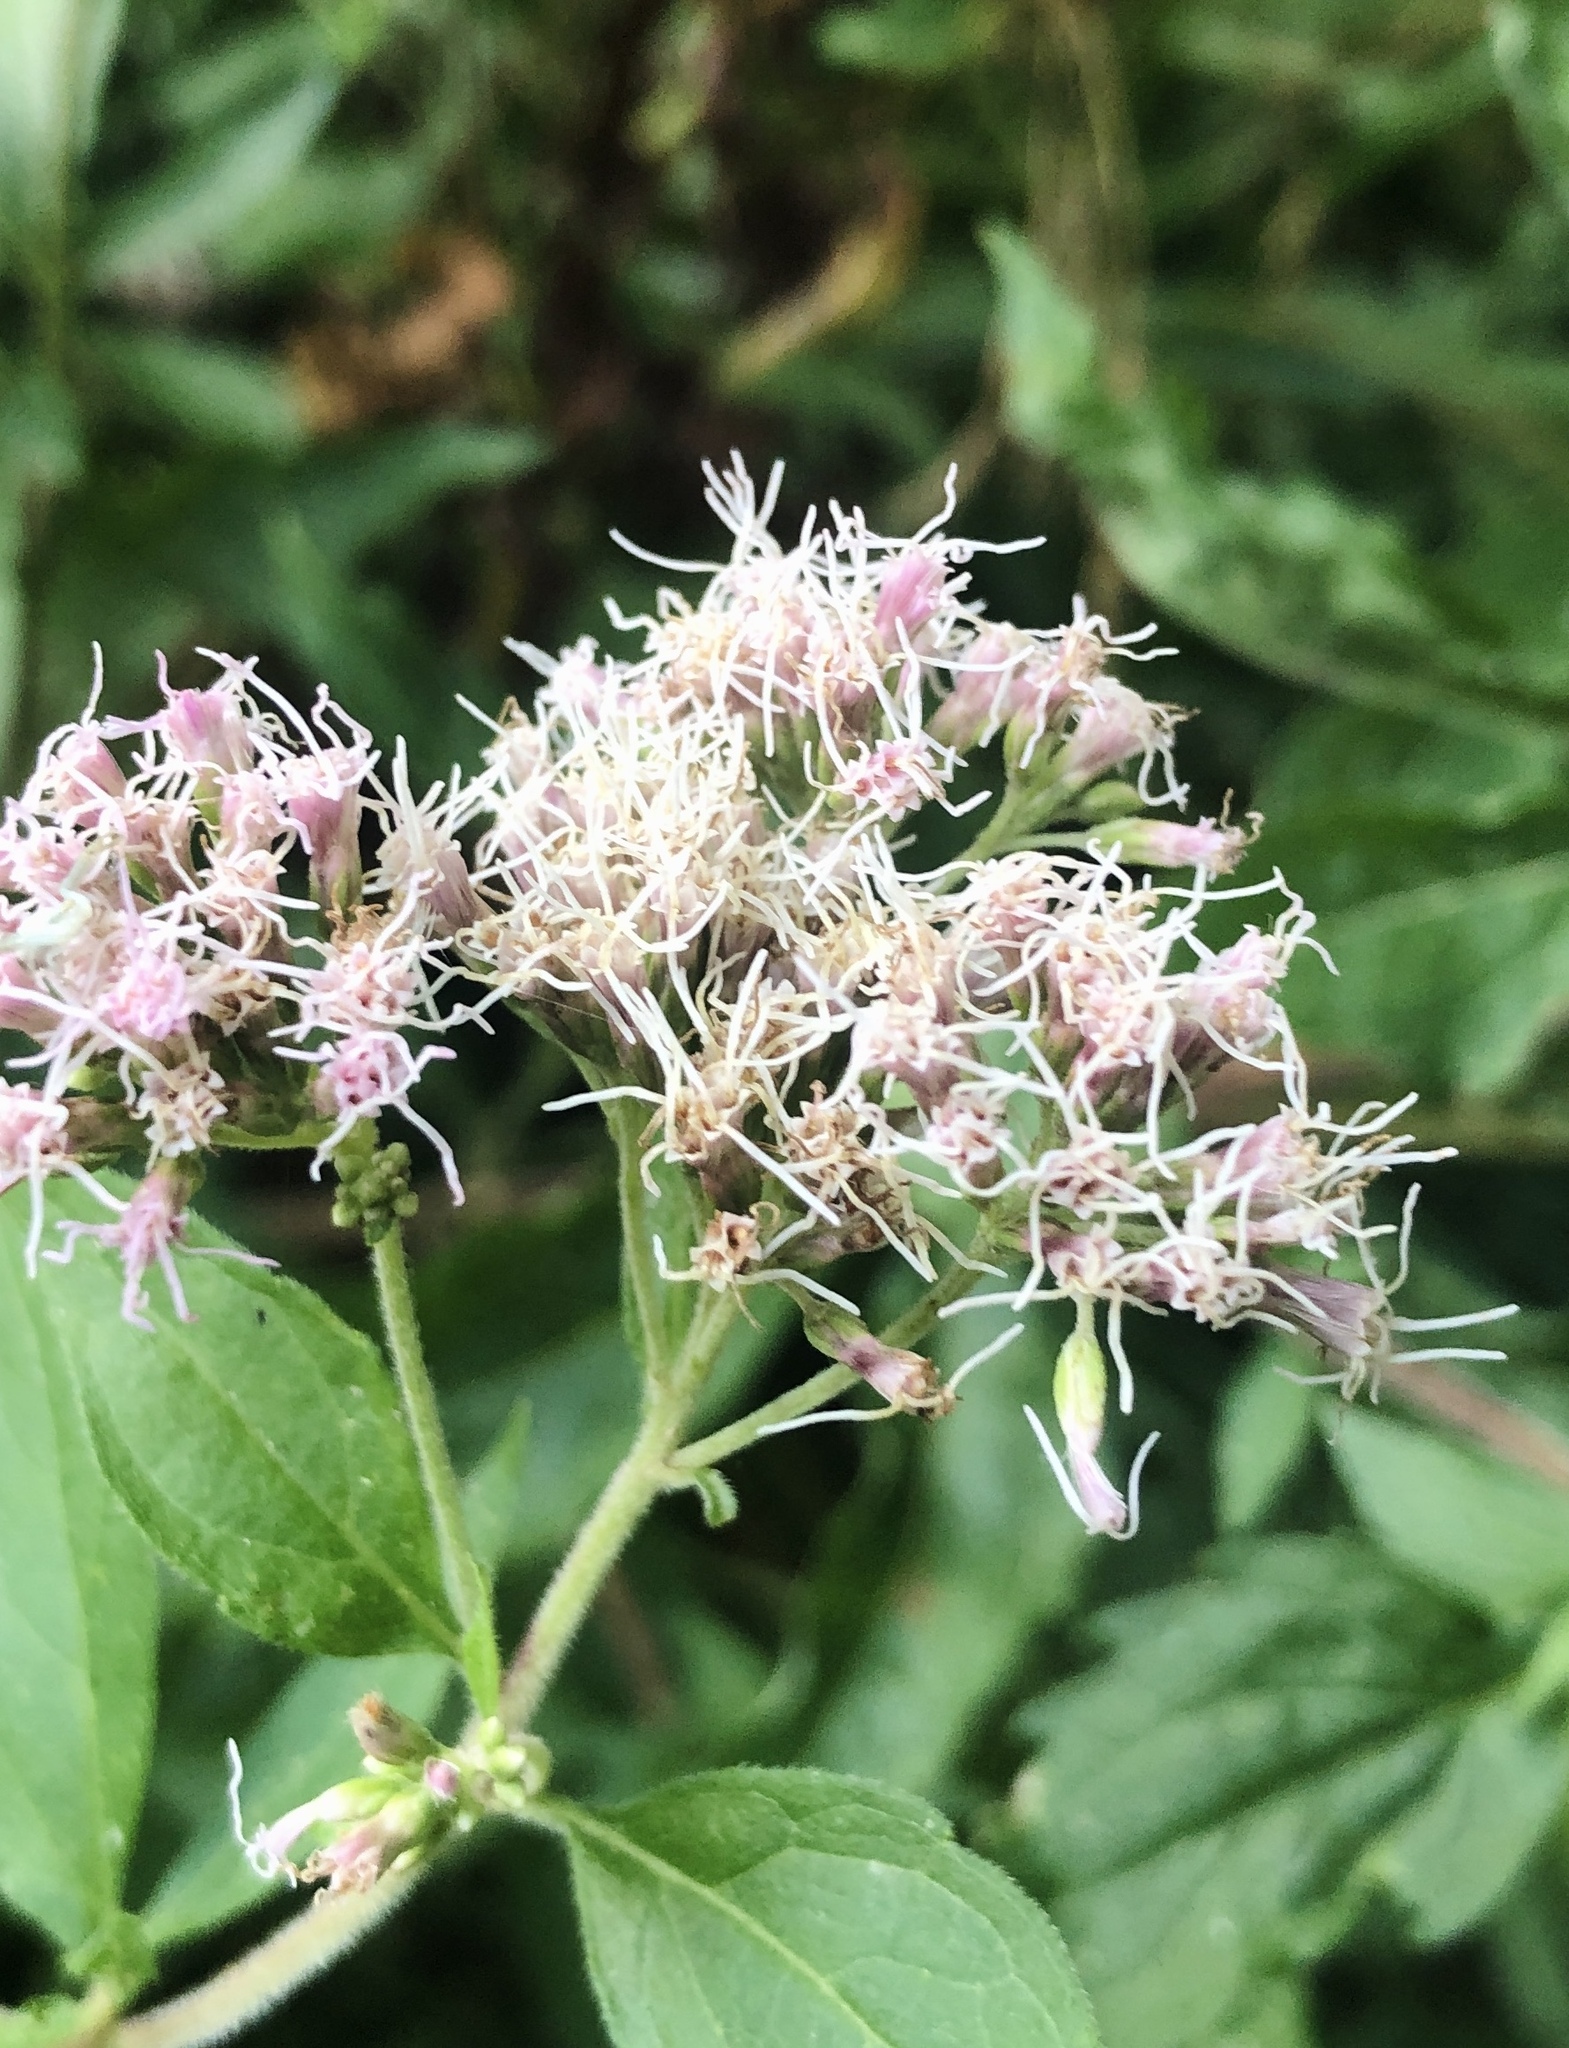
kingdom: Plantae
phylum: Tracheophyta
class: Magnoliopsida
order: Asterales
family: Asteraceae
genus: Eupatorium
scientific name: Eupatorium cannabinum
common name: Hemp-agrimony
